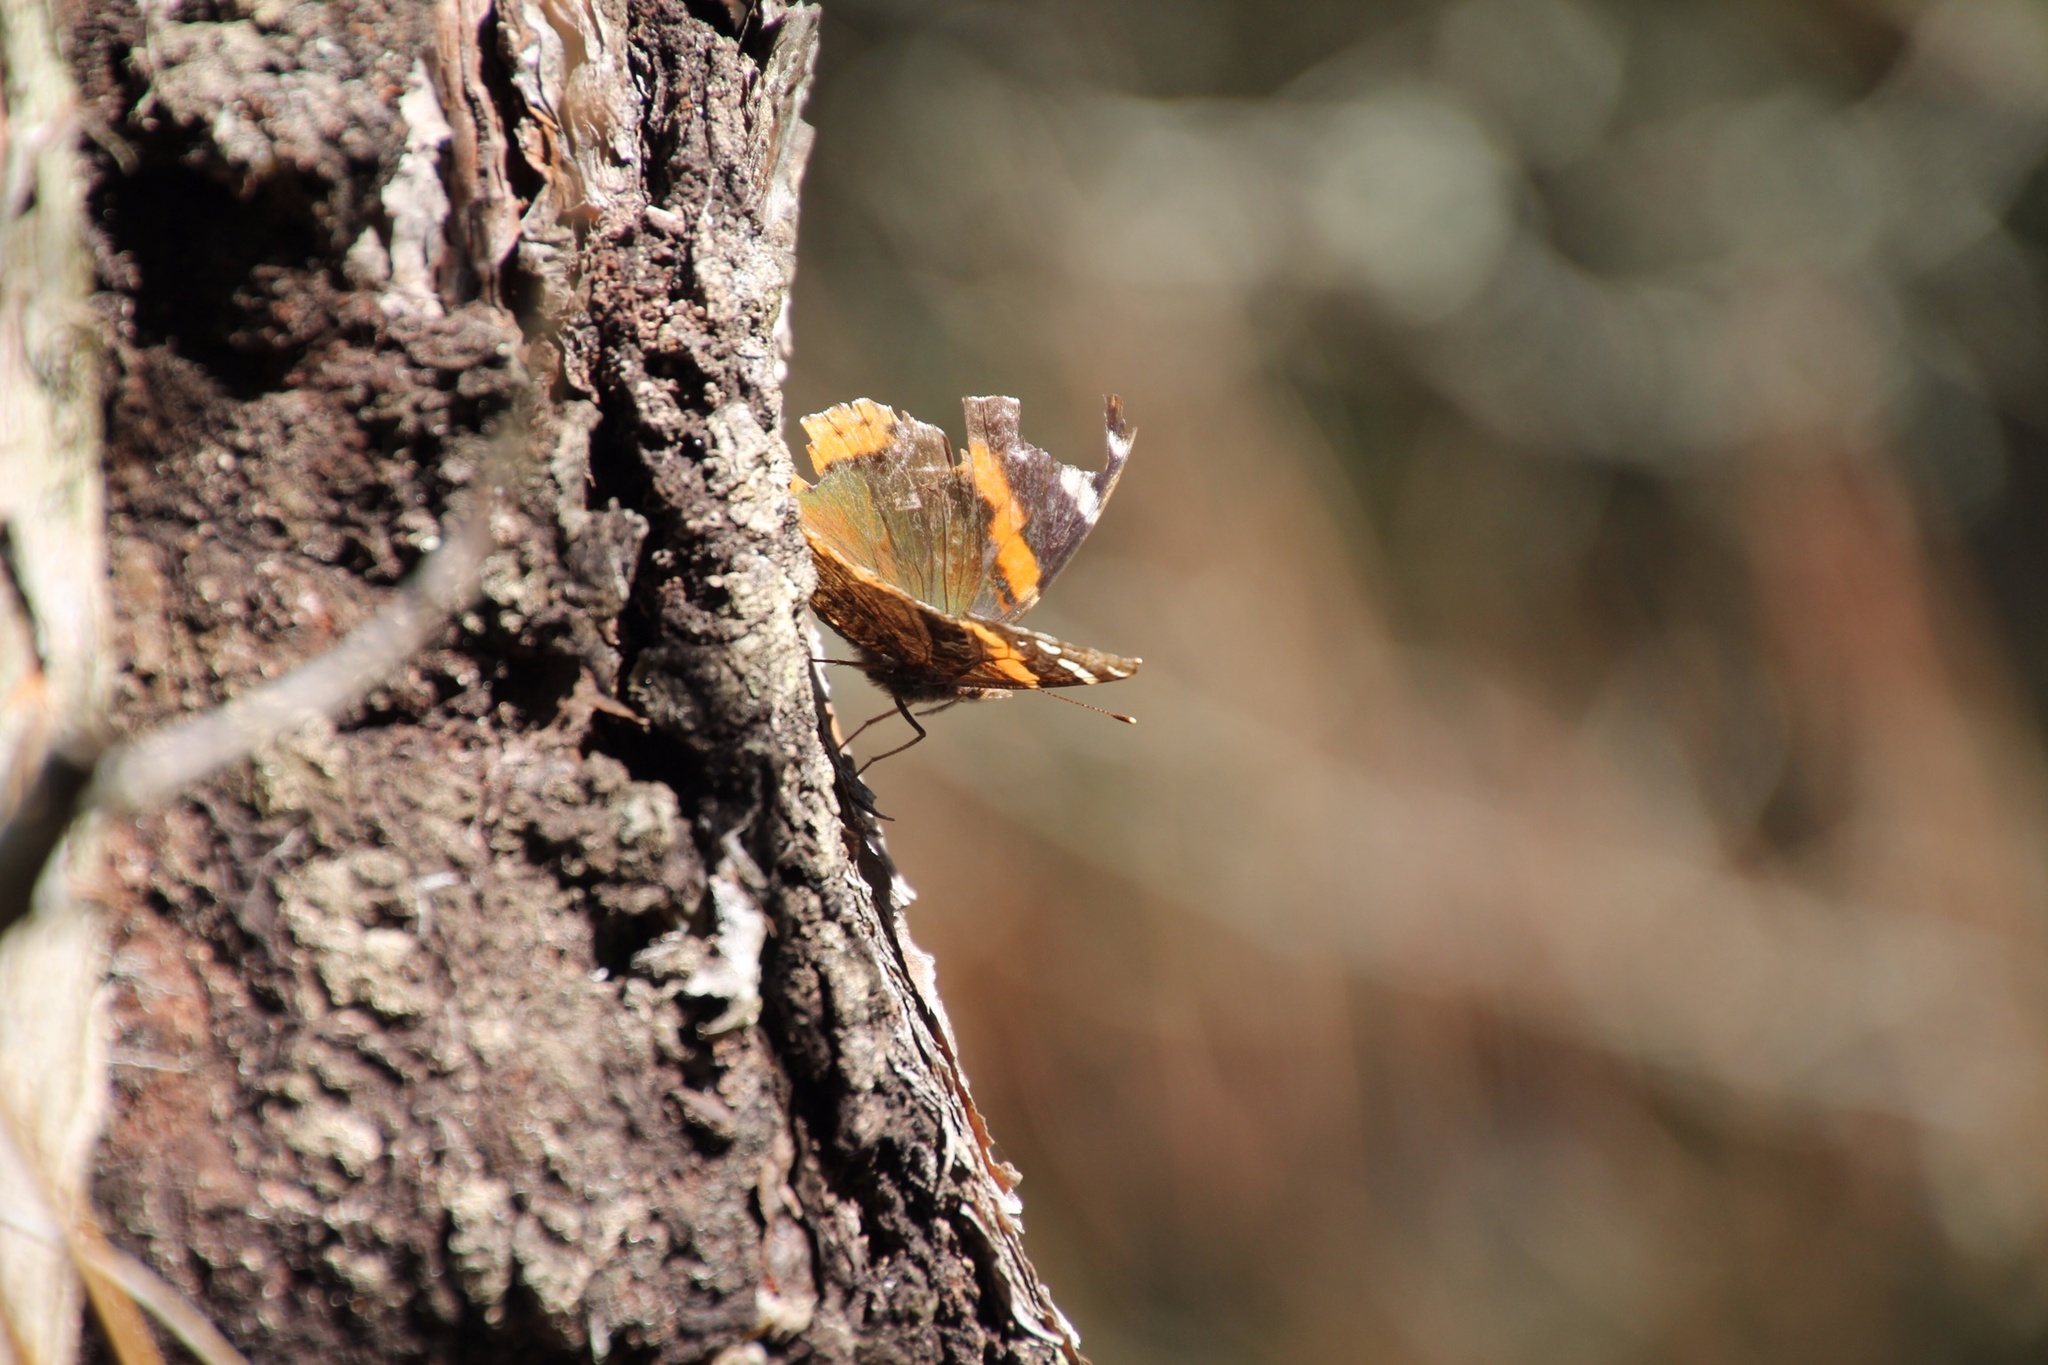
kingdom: Animalia
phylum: Arthropoda
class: Insecta
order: Lepidoptera
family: Nymphalidae
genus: Vanessa
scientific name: Vanessa atalanta
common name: Red admiral
